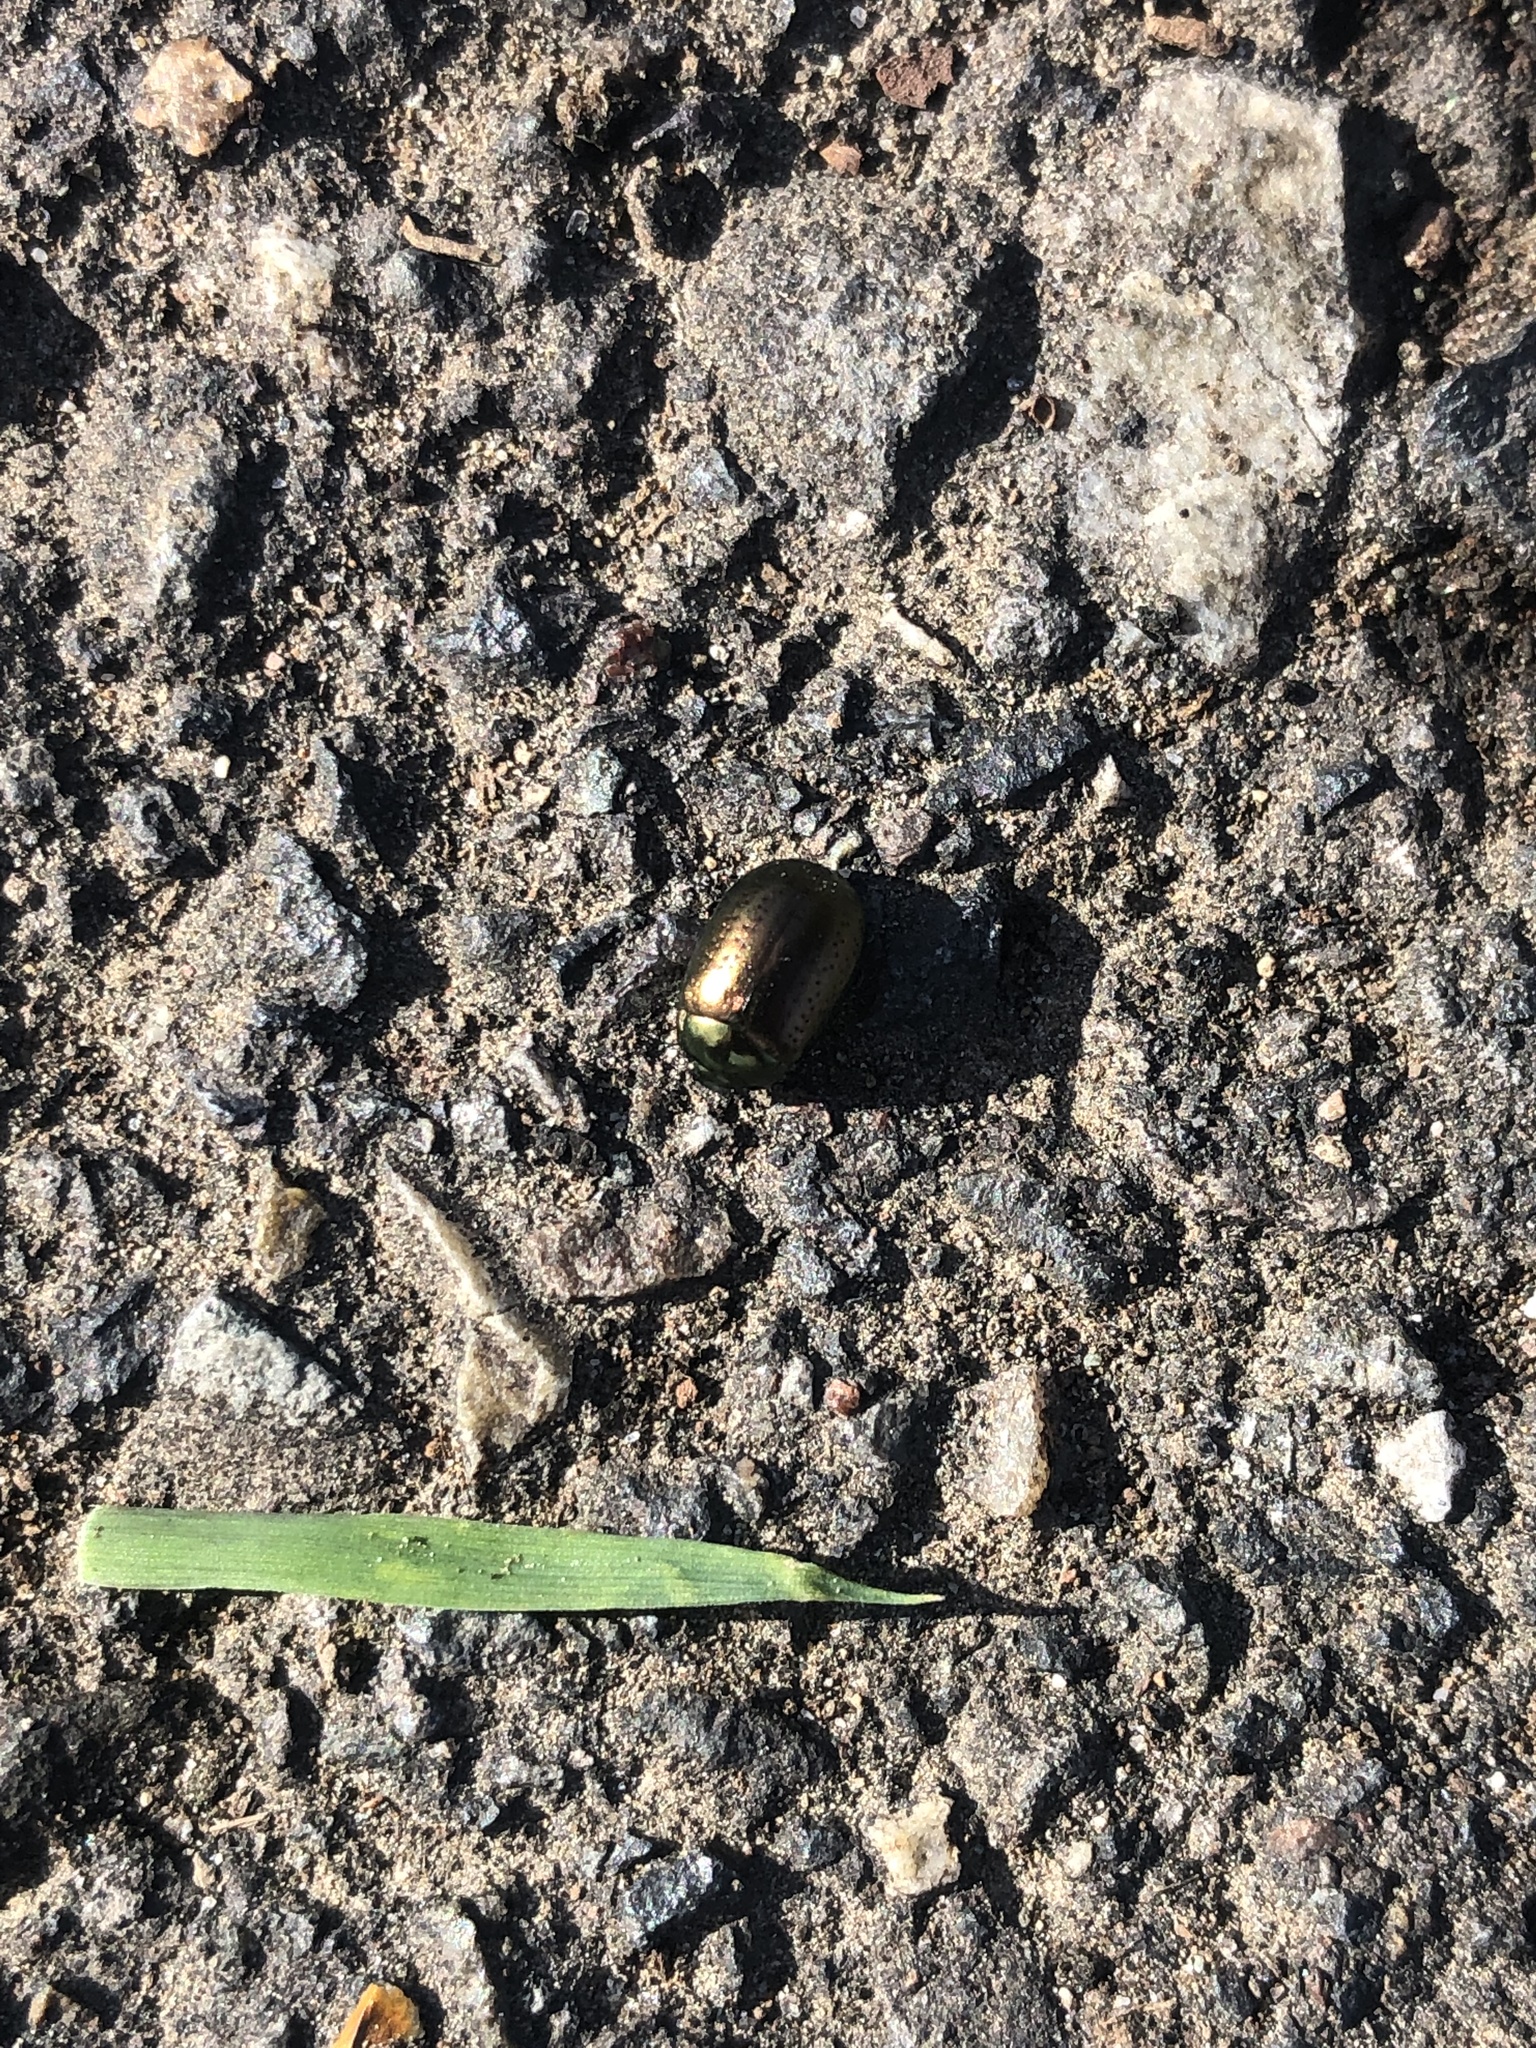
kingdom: Animalia
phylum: Arthropoda
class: Insecta
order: Coleoptera
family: Chrysomelidae
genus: Chrysolina
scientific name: Chrysolina hyperici
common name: St. johnswort beetle
